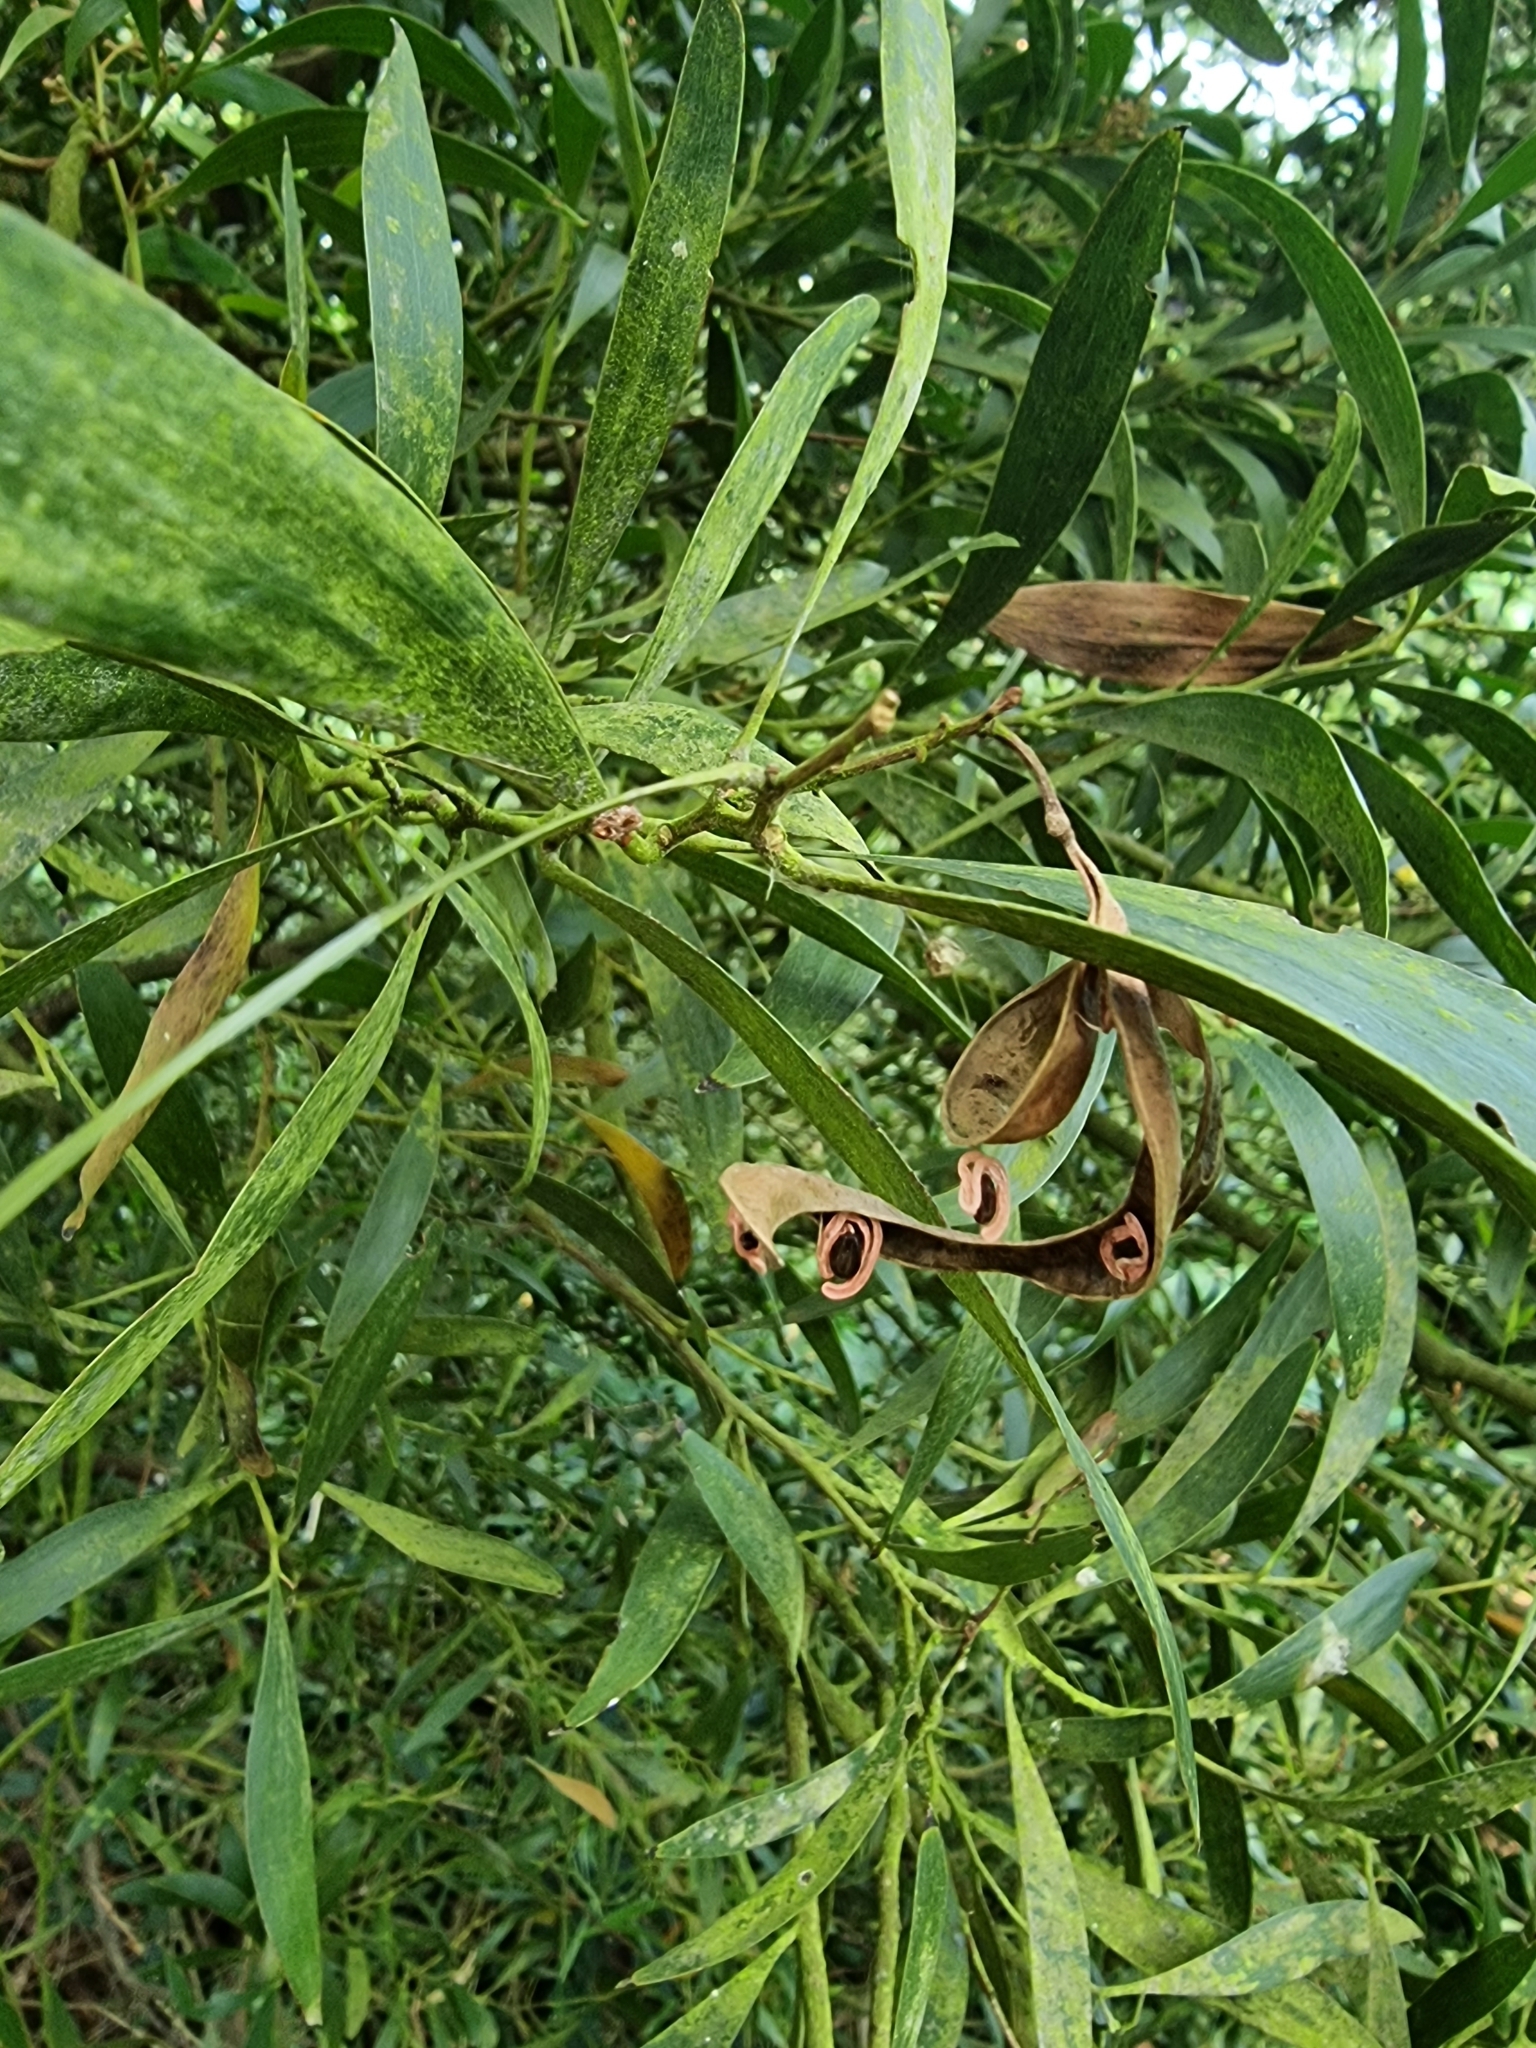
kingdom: Plantae
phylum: Tracheophyta
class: Magnoliopsida
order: Fabales
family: Fabaceae
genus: Acacia
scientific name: Acacia melanoxylon
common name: Blackwood
